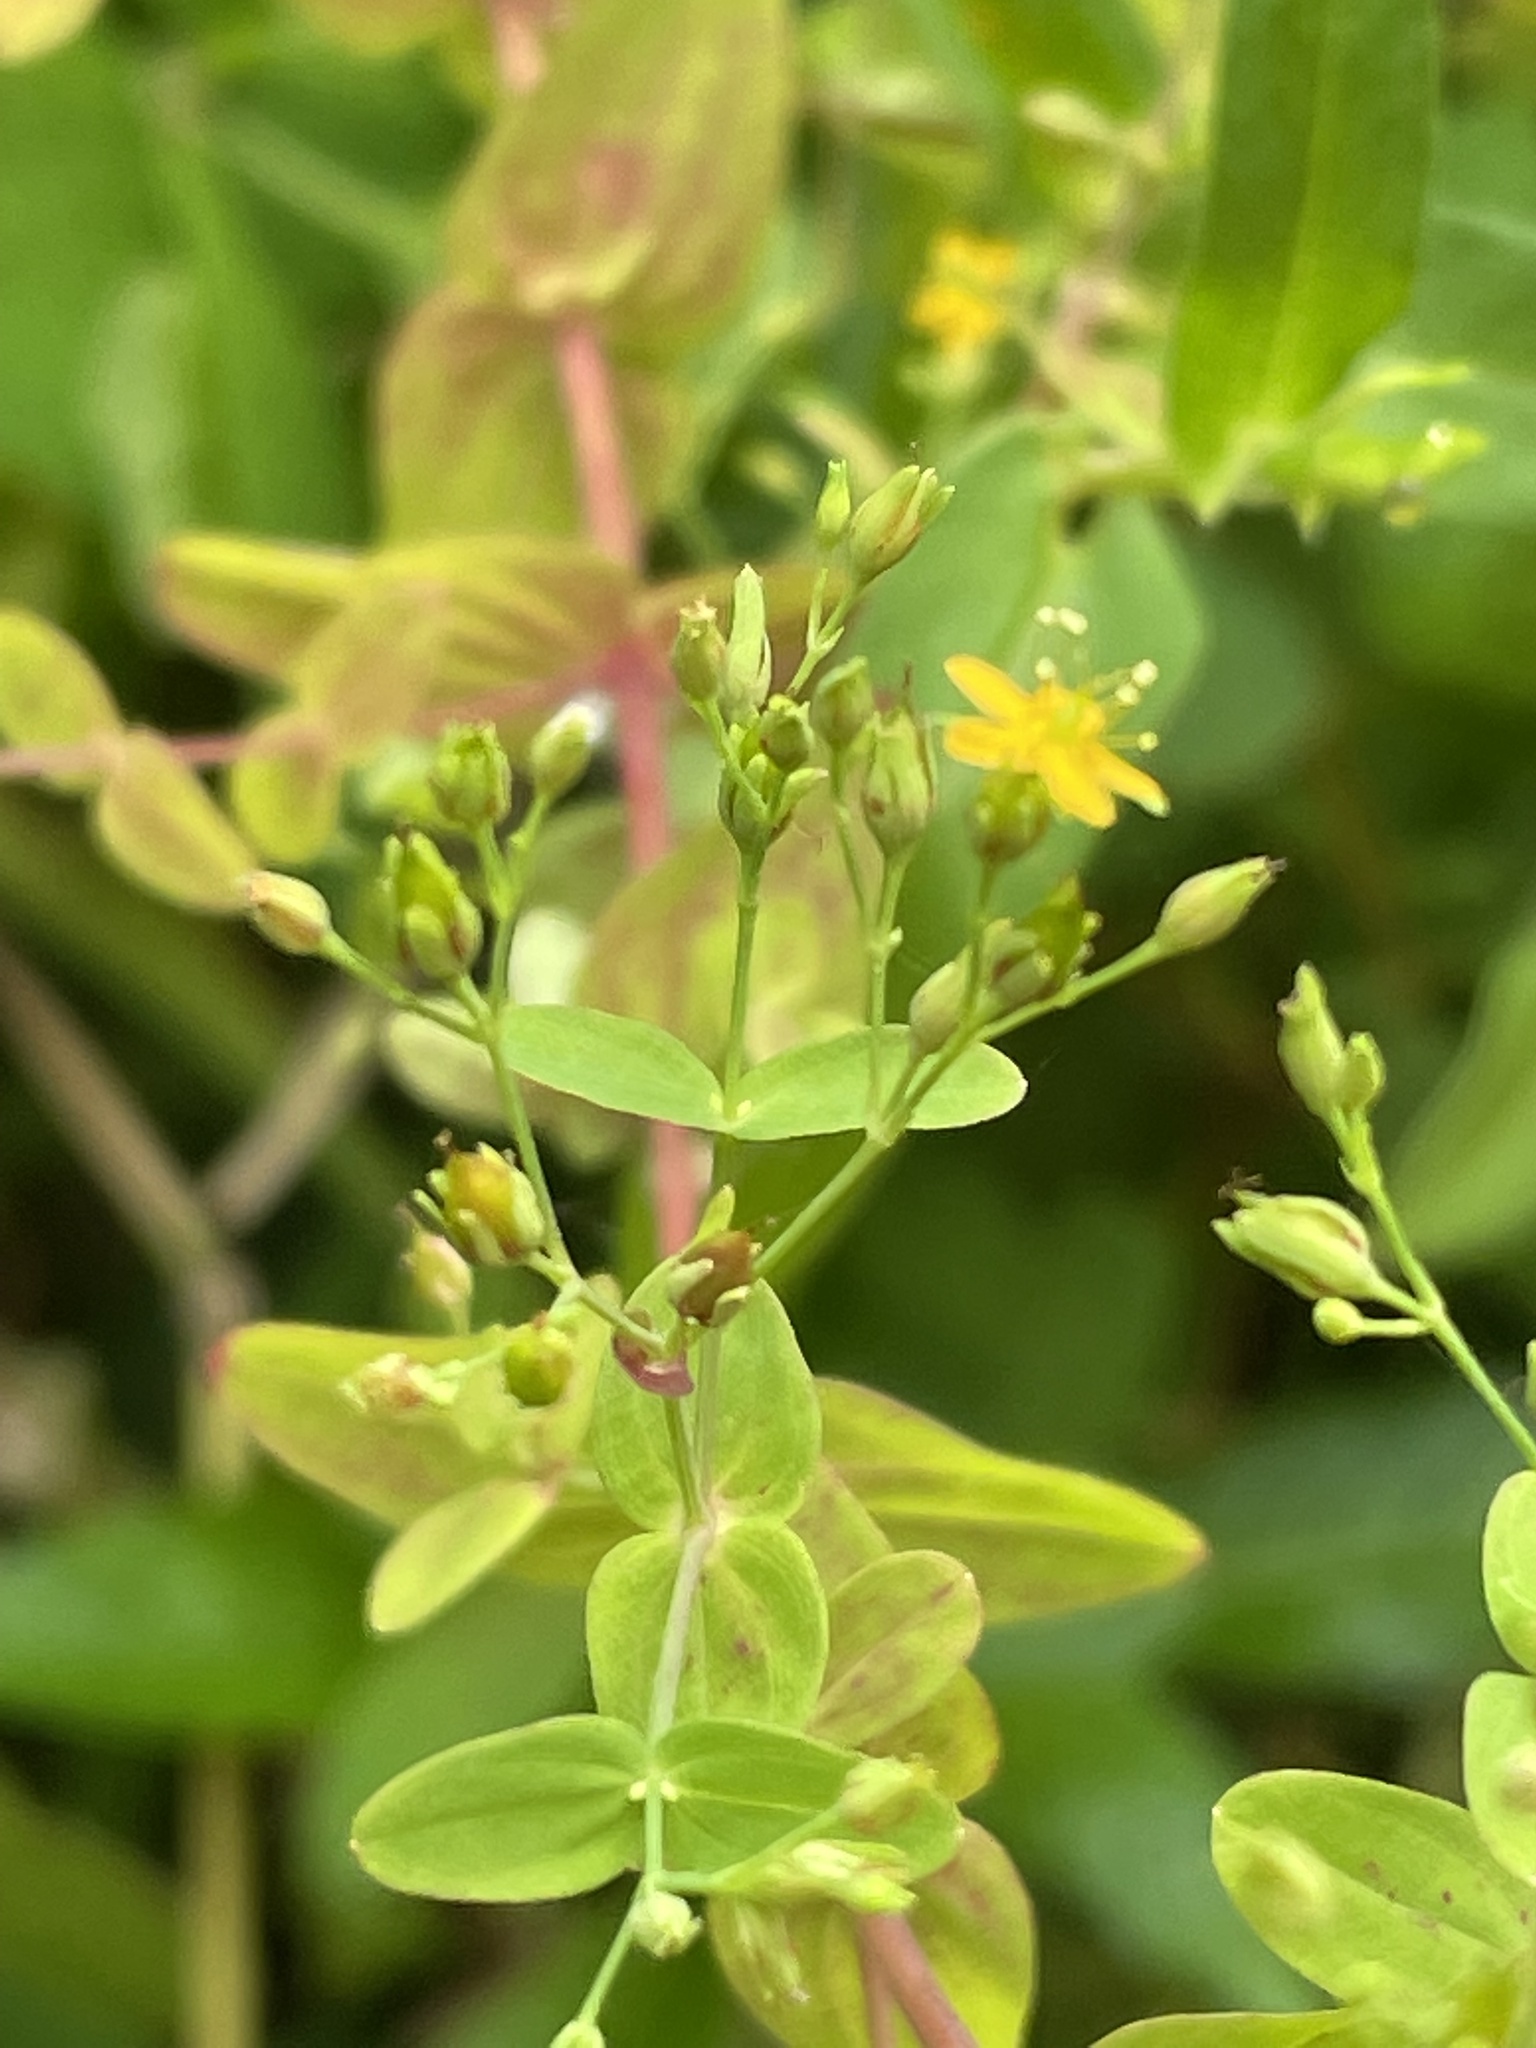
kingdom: Plantae
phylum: Tracheophyta
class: Magnoliopsida
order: Malpighiales
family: Hypericaceae
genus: Hypericum
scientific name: Hypericum mutilum
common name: Dwarf st. john's-wort
